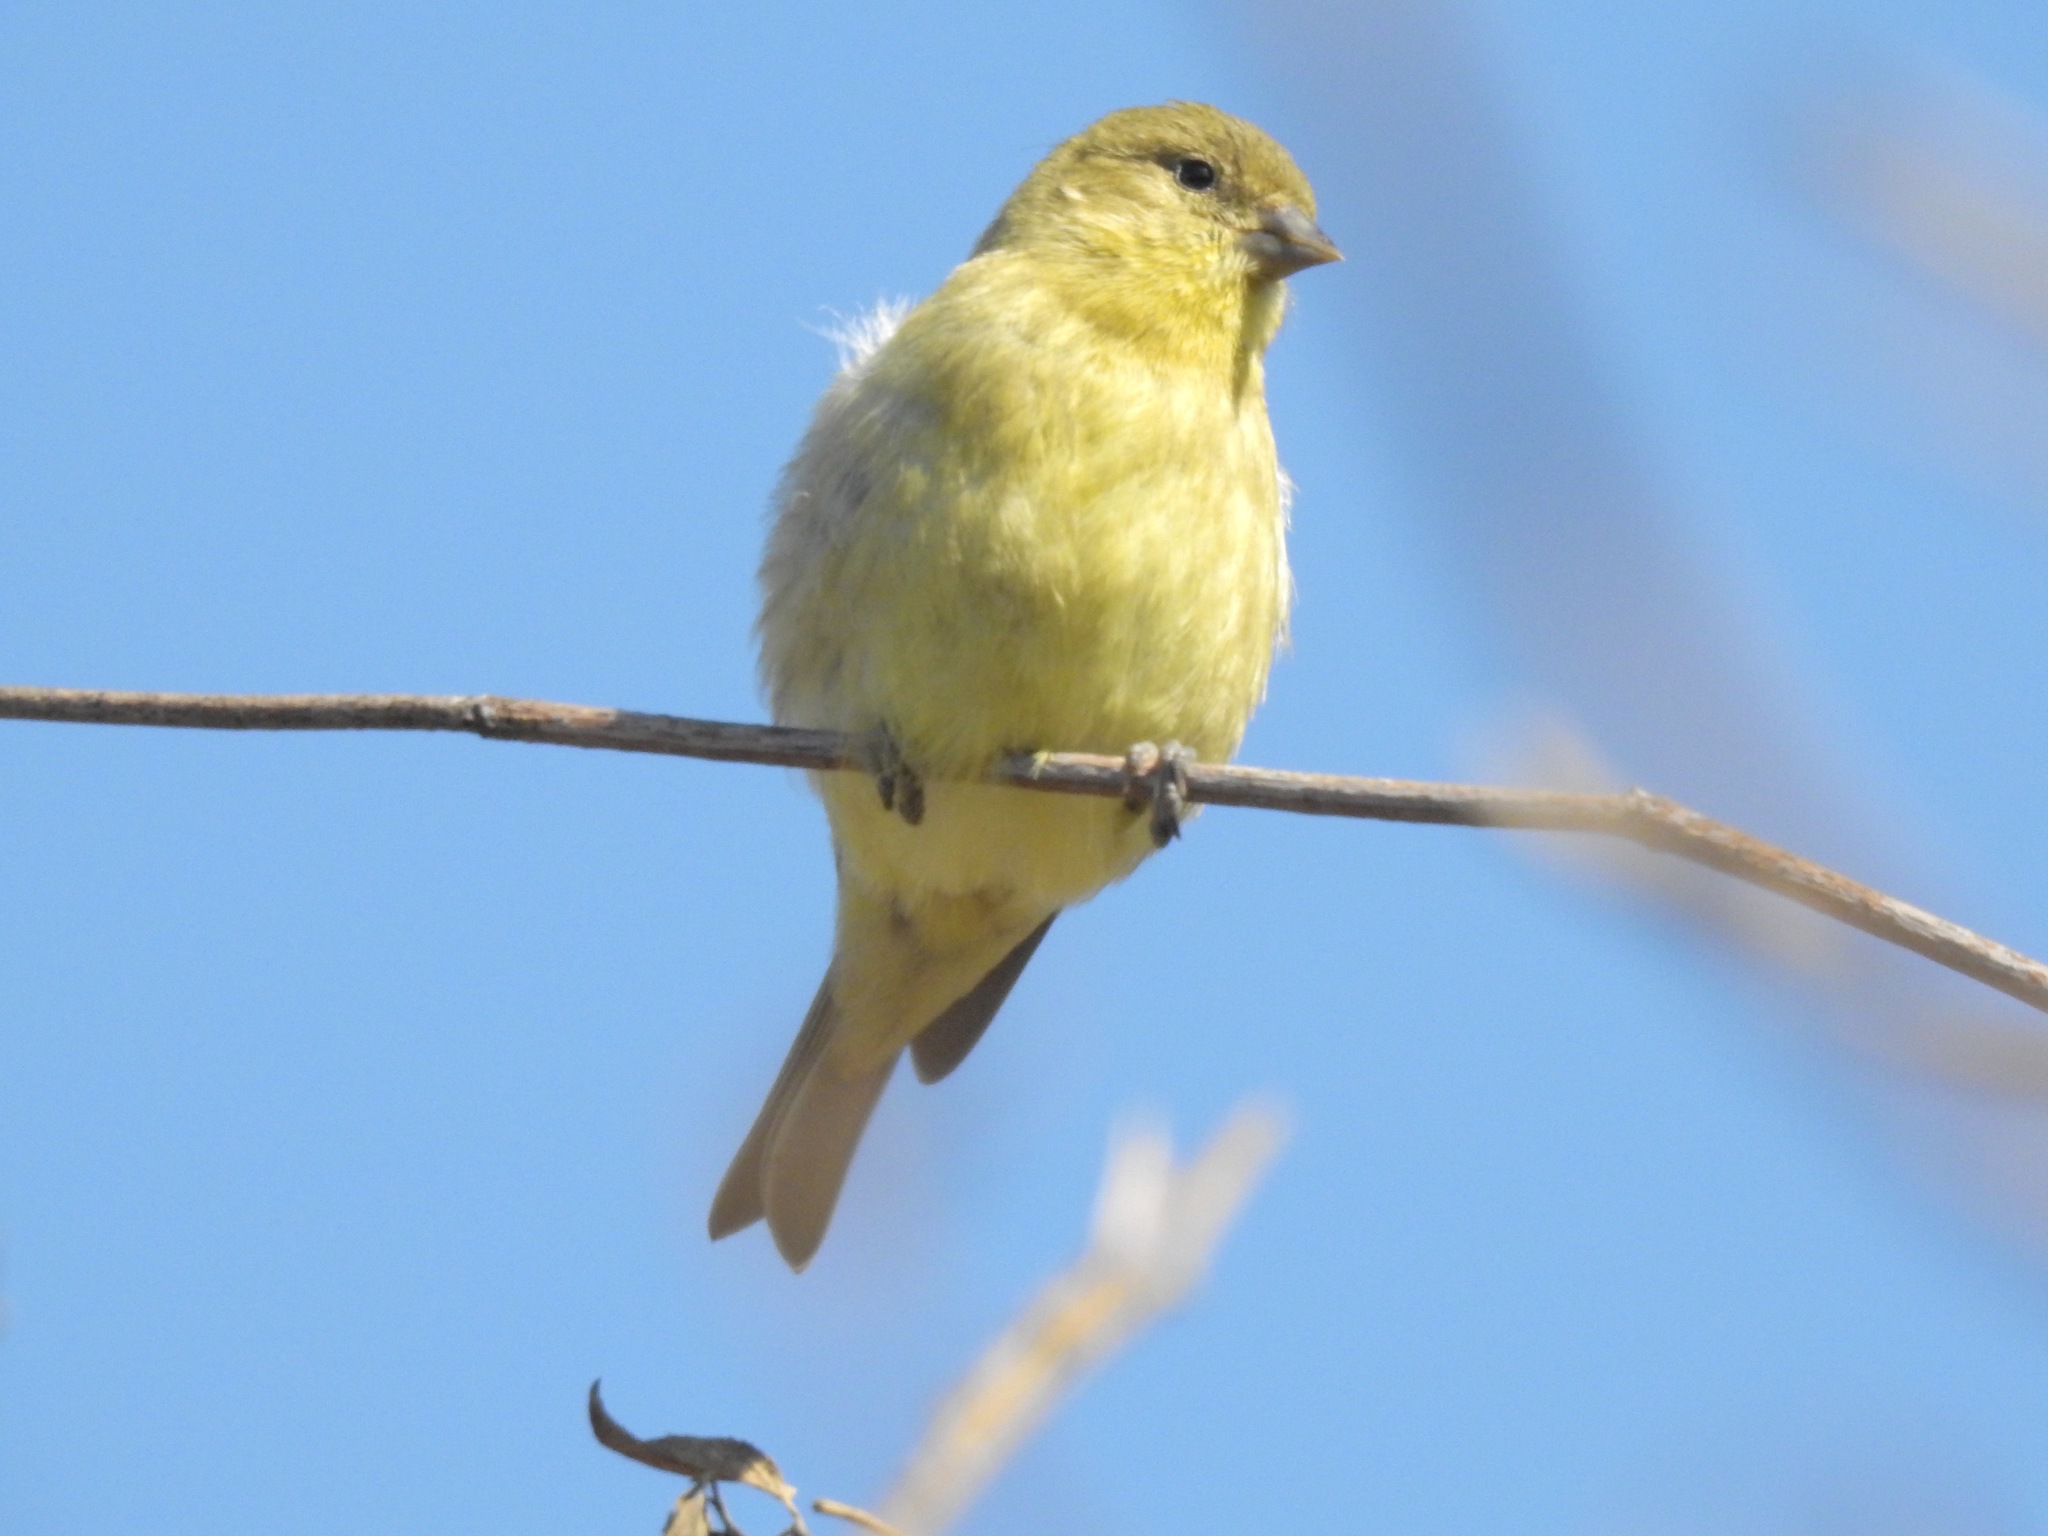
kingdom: Animalia
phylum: Chordata
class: Aves
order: Passeriformes
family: Fringillidae
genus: Spinus
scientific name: Spinus psaltria
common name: Lesser goldfinch
